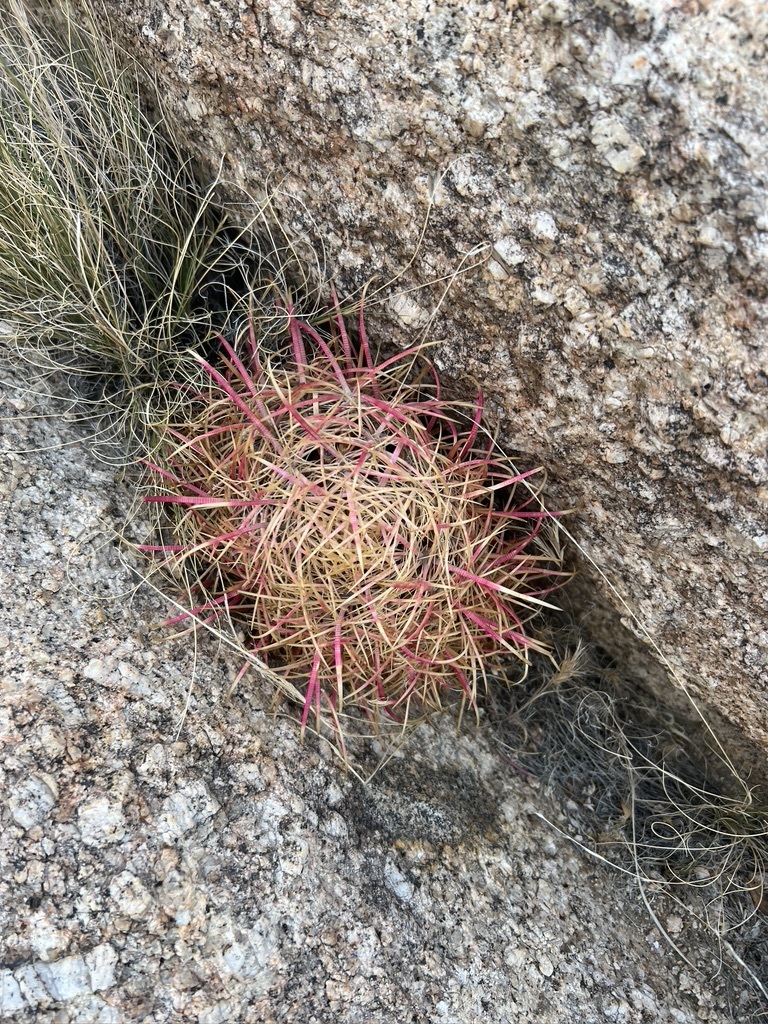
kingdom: Plantae
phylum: Tracheophyta
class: Magnoliopsida
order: Caryophyllales
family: Cactaceae
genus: Ferocactus
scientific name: Ferocactus cylindraceus
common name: California barrel cactus
